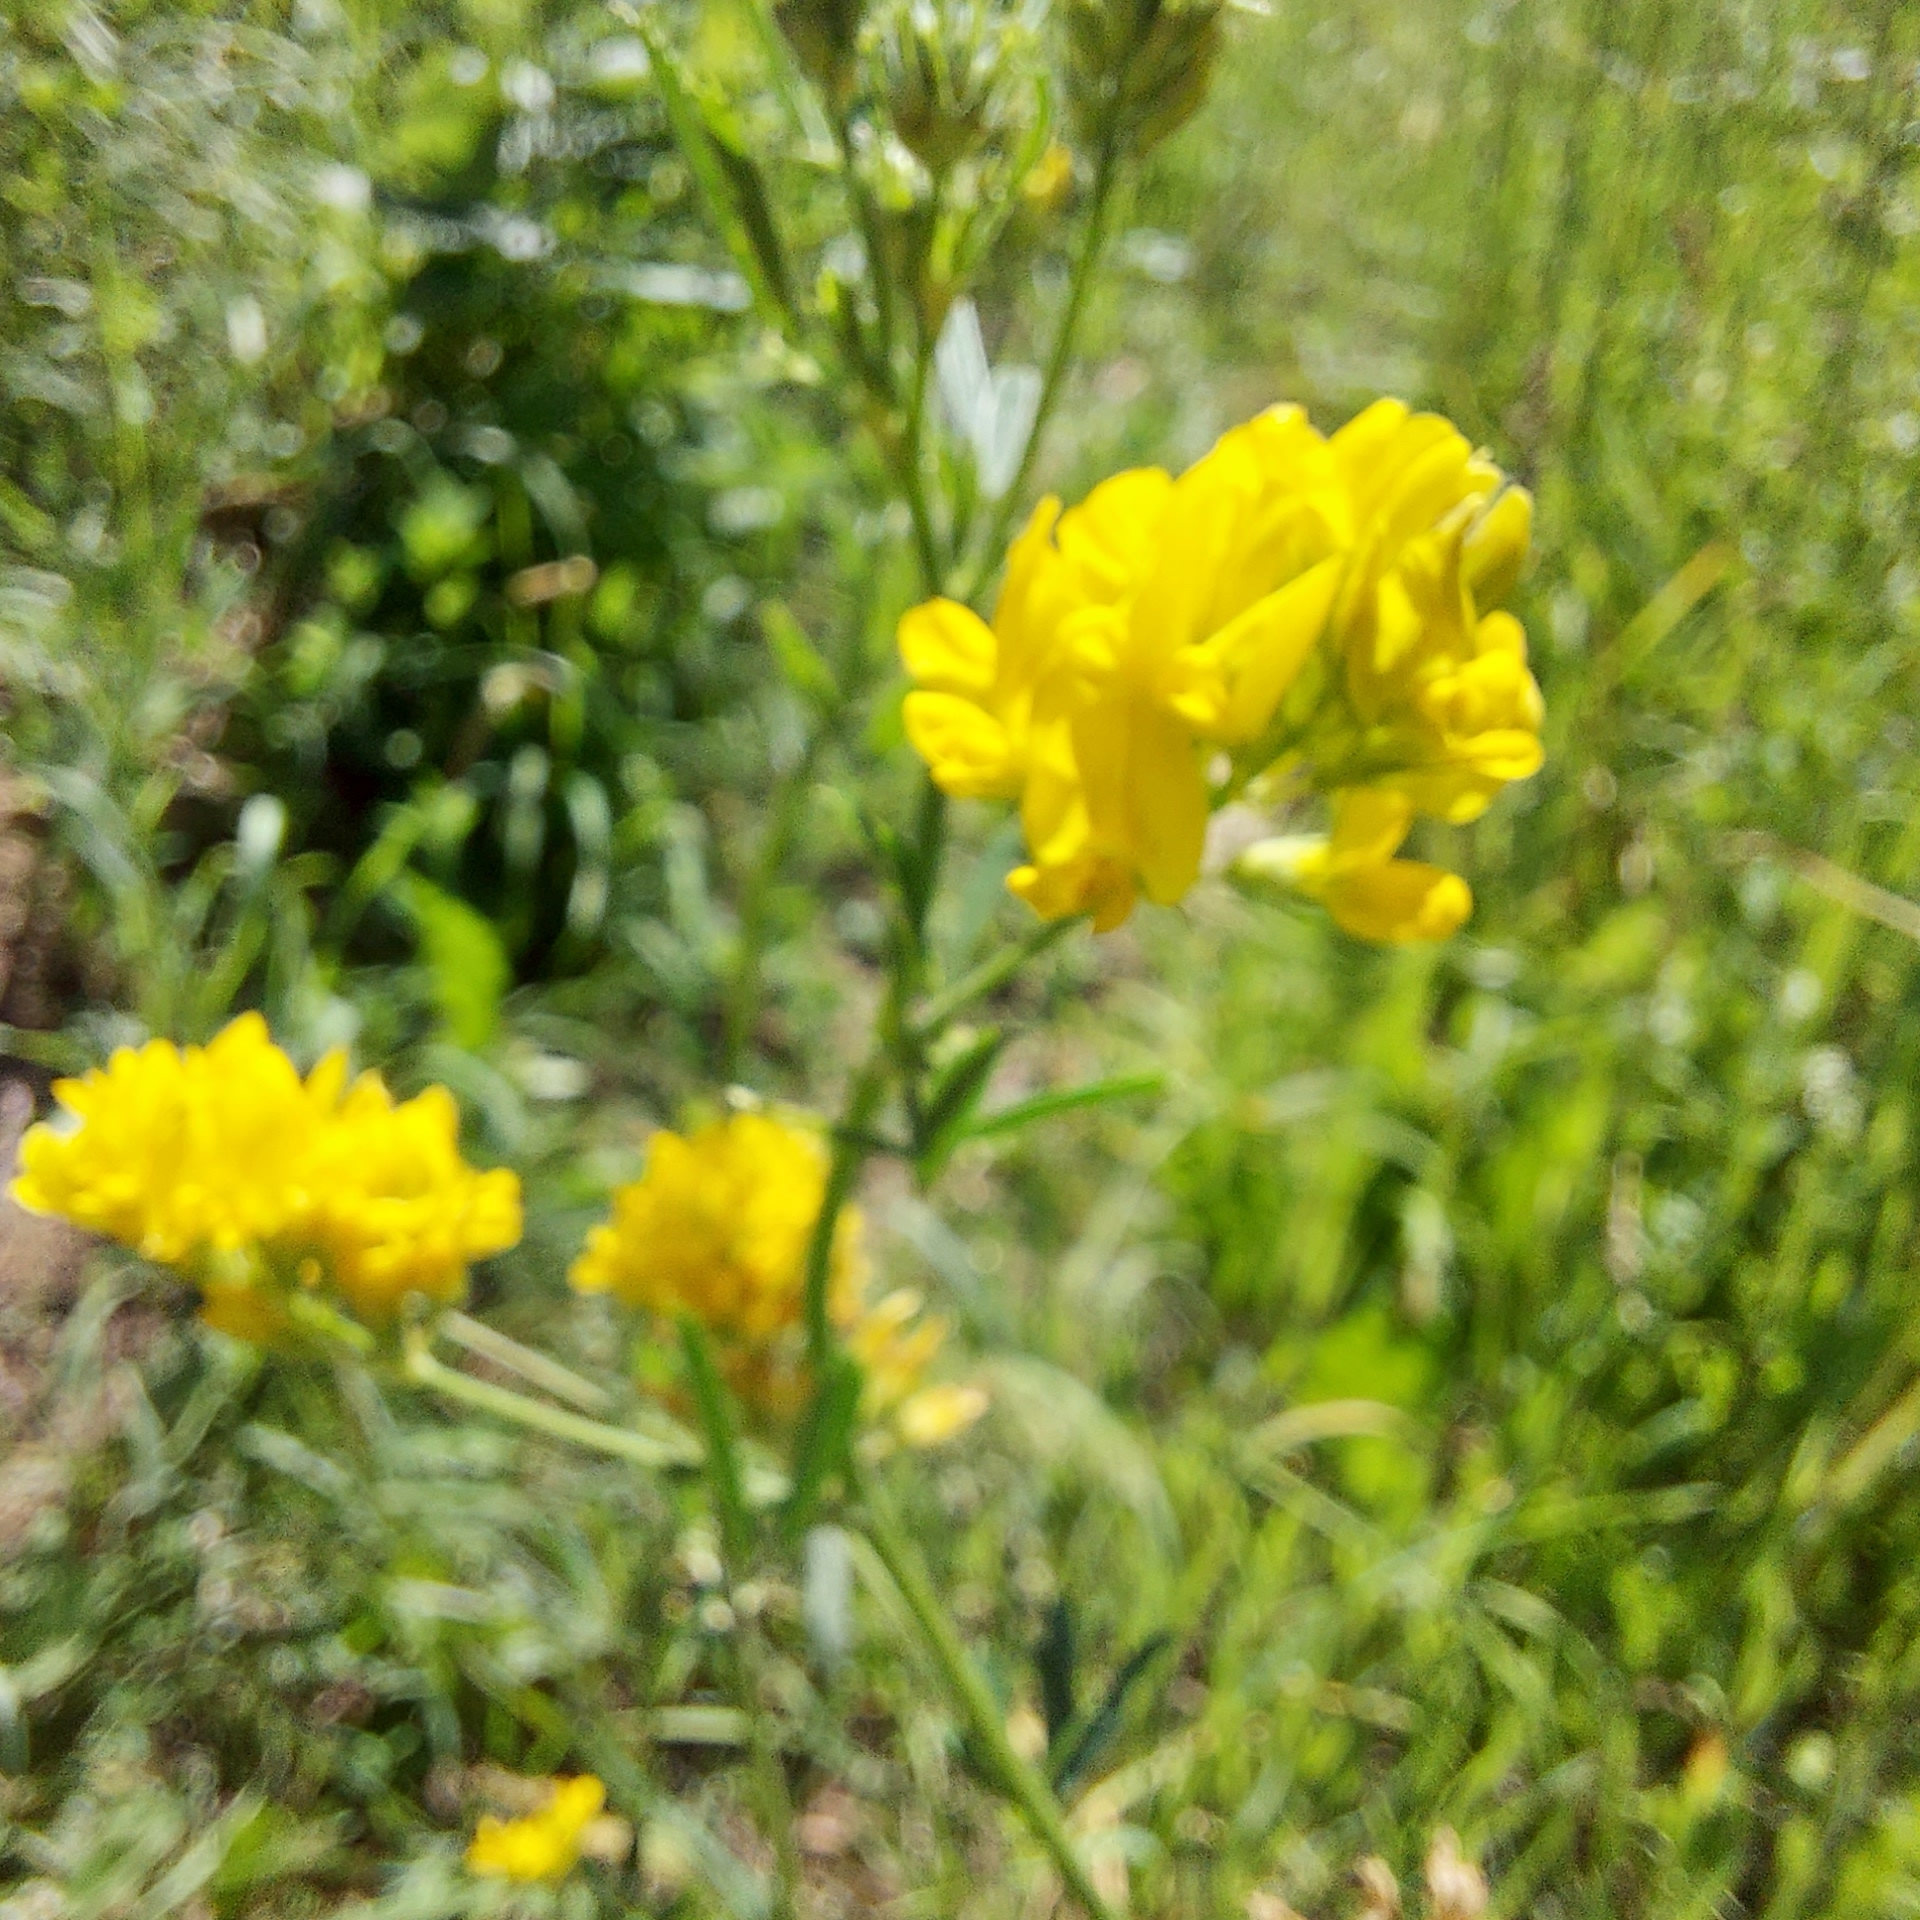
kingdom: Plantae
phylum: Tracheophyta
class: Magnoliopsida
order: Fabales
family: Fabaceae
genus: Medicago
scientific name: Medicago falcata
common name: Sickle medick
